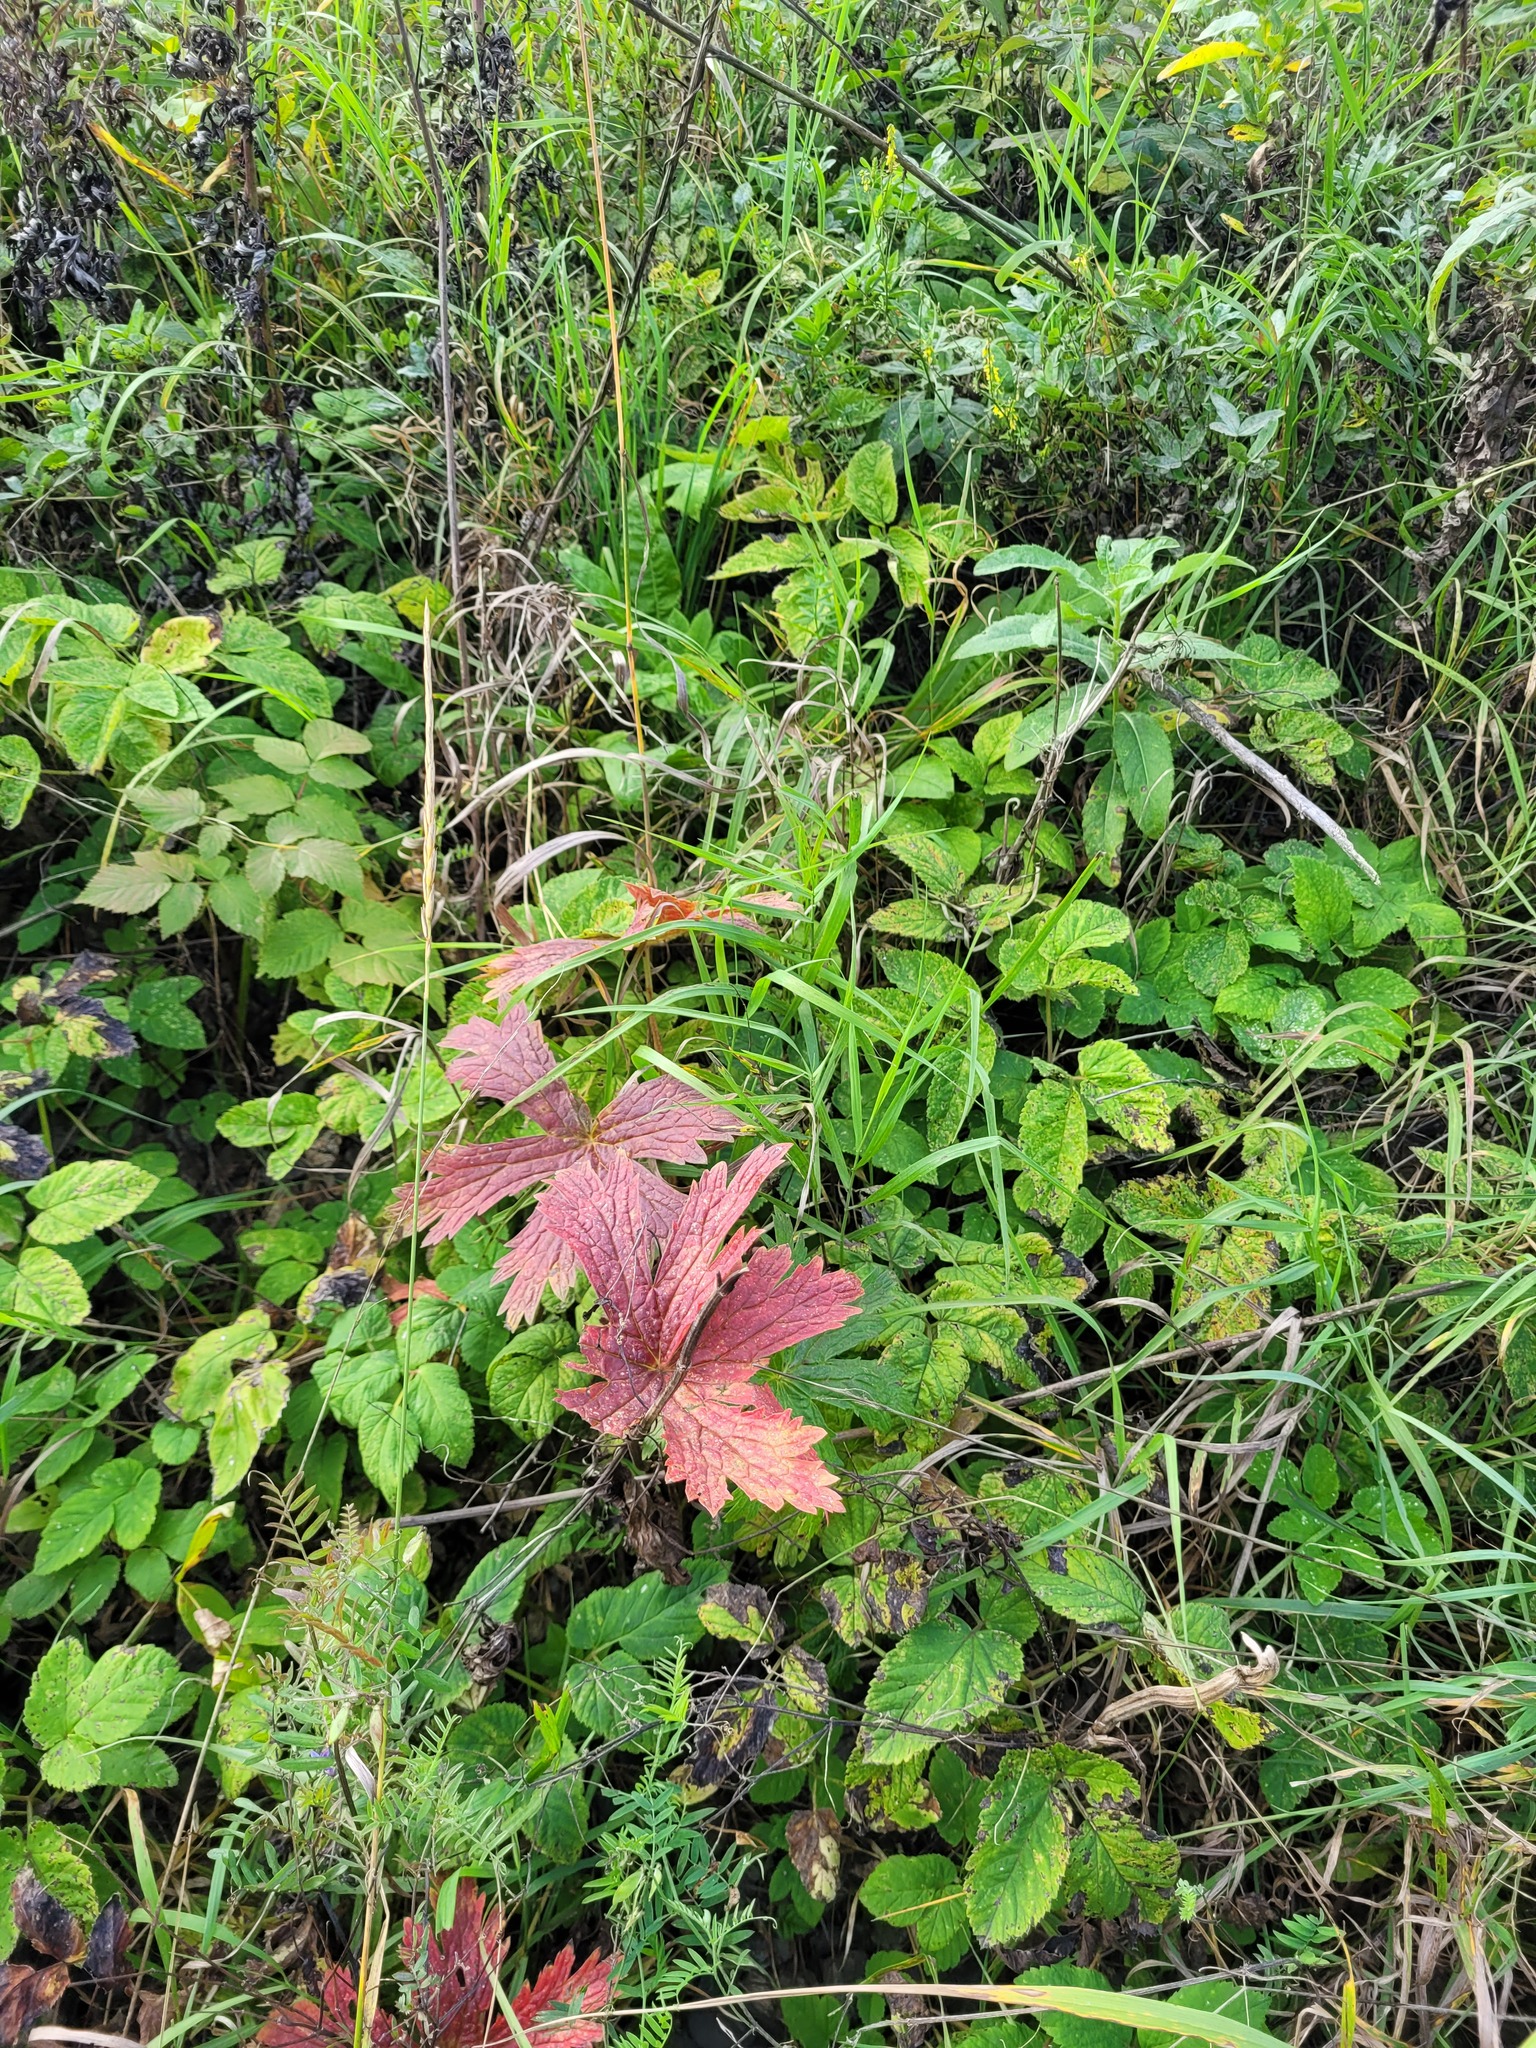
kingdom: Plantae
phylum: Tracheophyta
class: Magnoliopsida
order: Geraniales
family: Geraniaceae
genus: Geranium
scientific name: Geranium sylvaticum
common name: Wood crane's-bill
